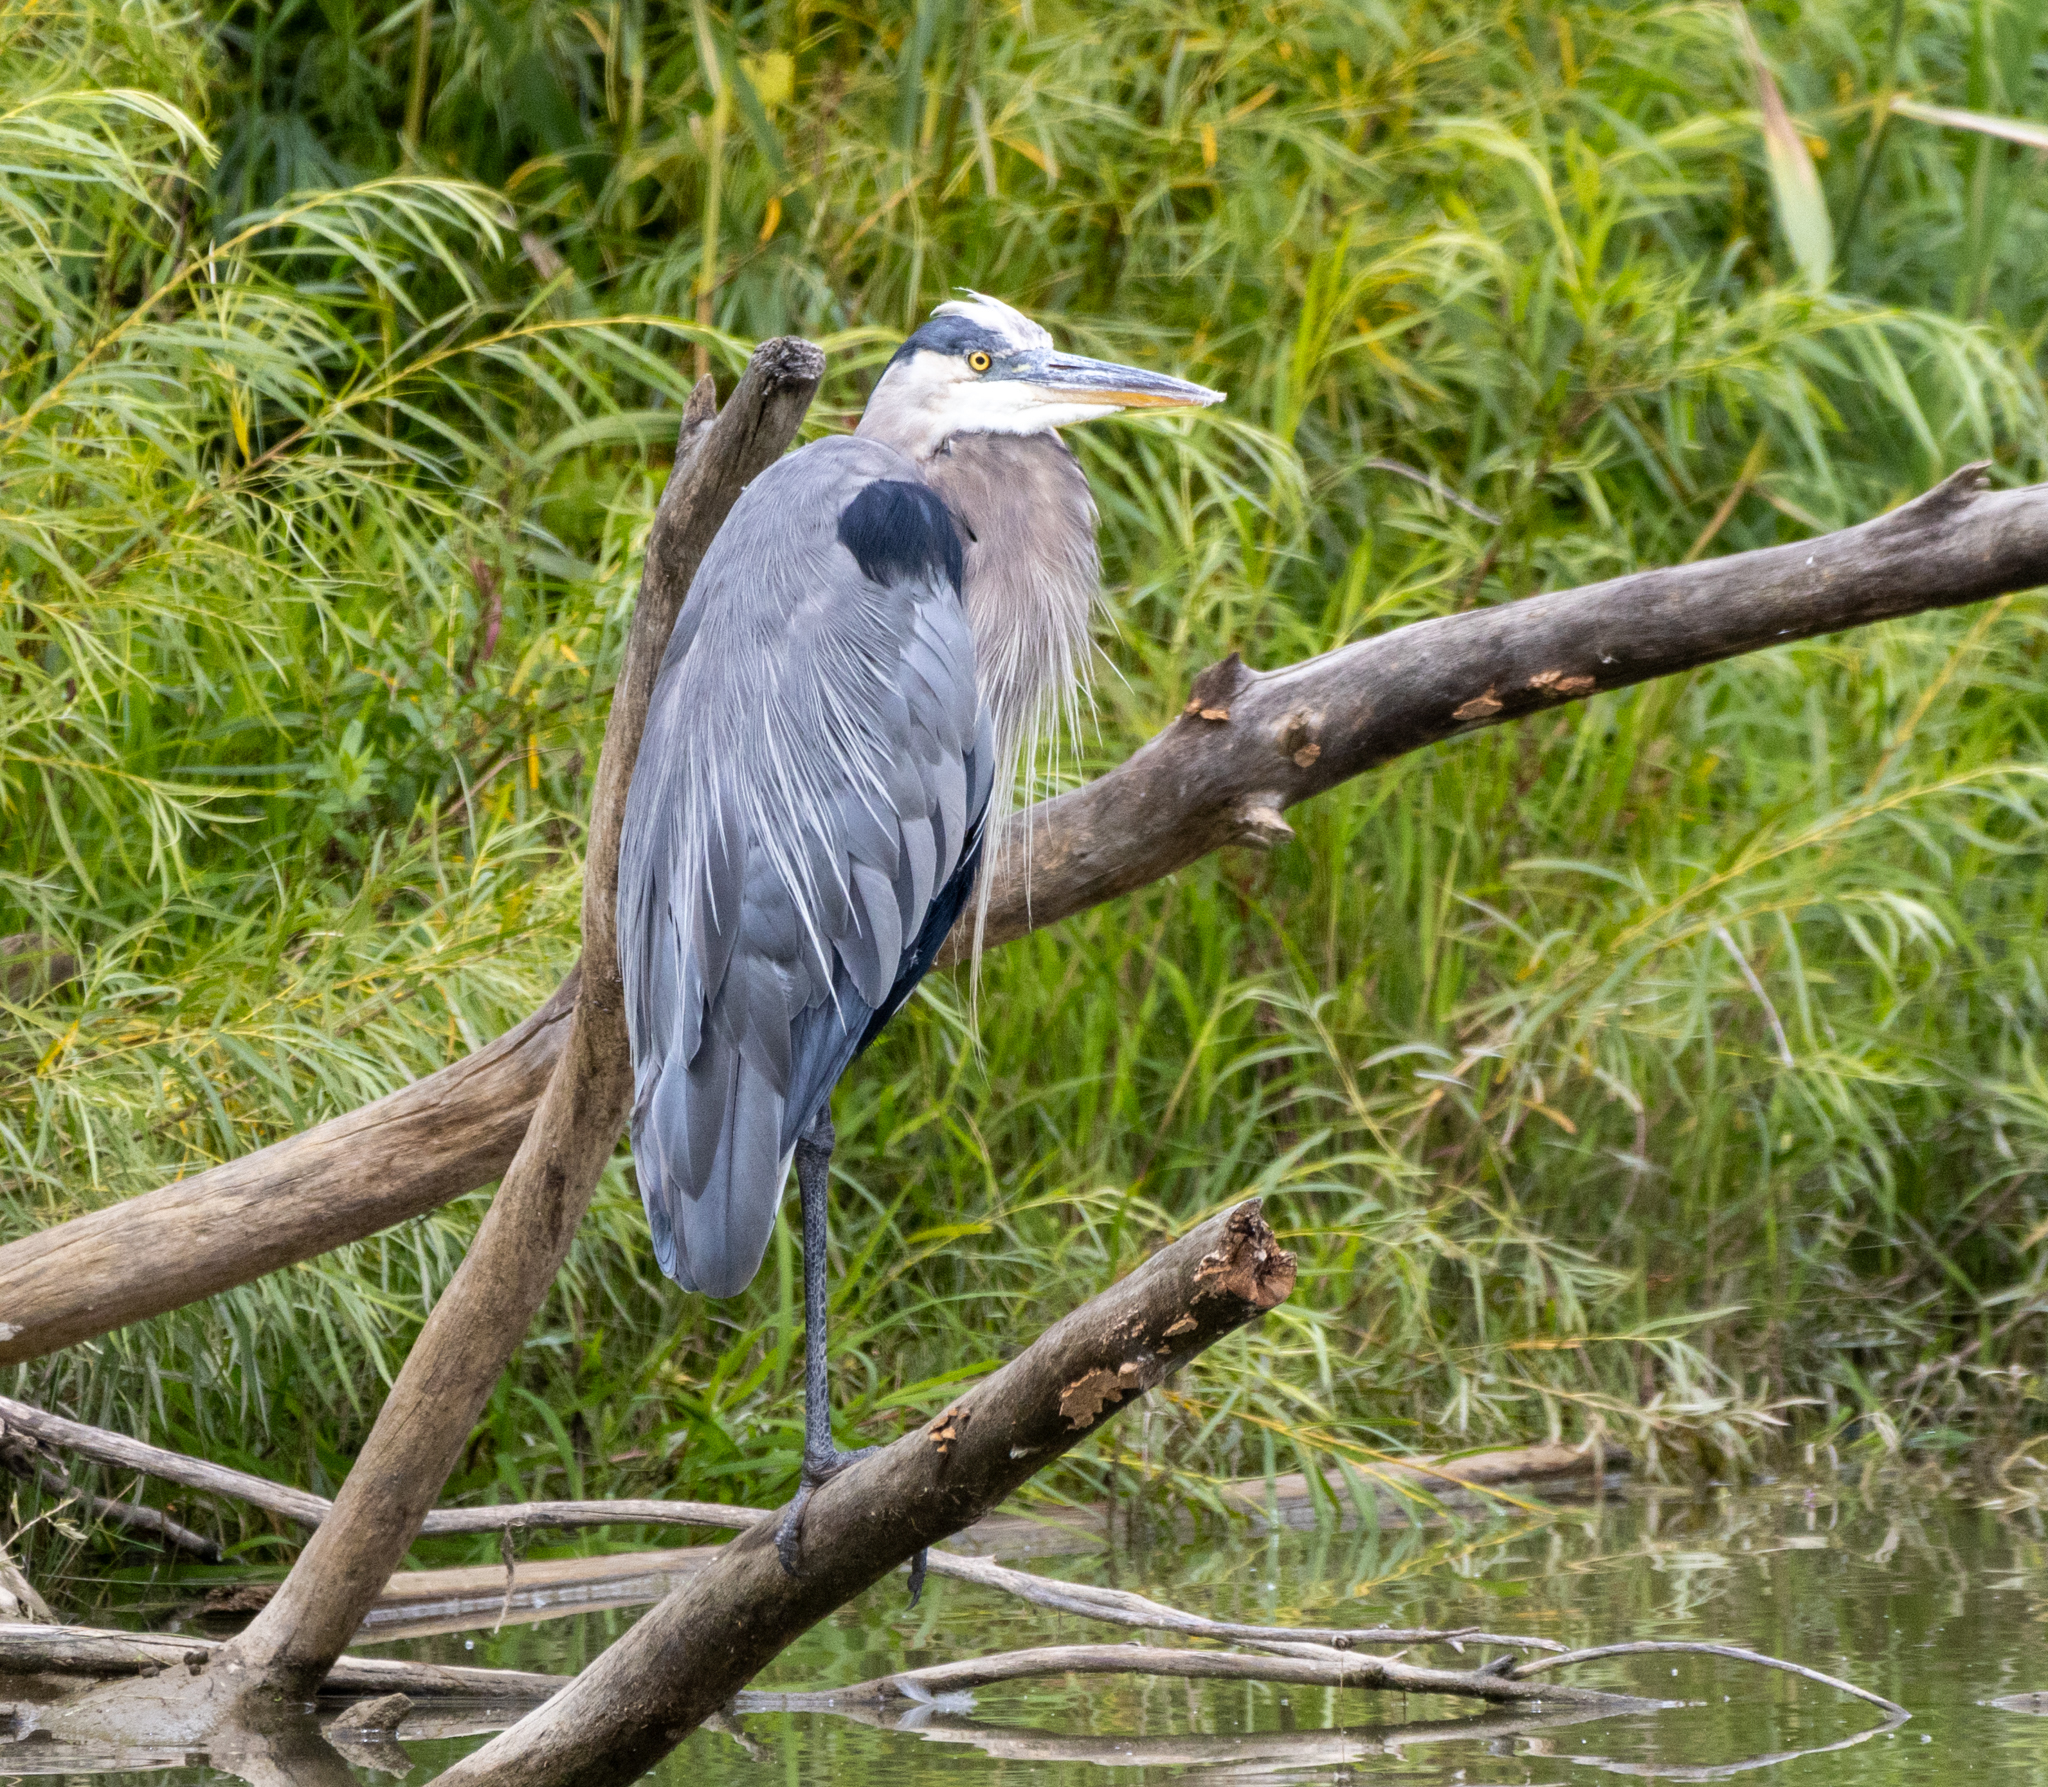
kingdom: Animalia
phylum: Chordata
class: Aves
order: Pelecaniformes
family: Ardeidae
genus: Ardea
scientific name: Ardea herodias
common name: Great blue heron
